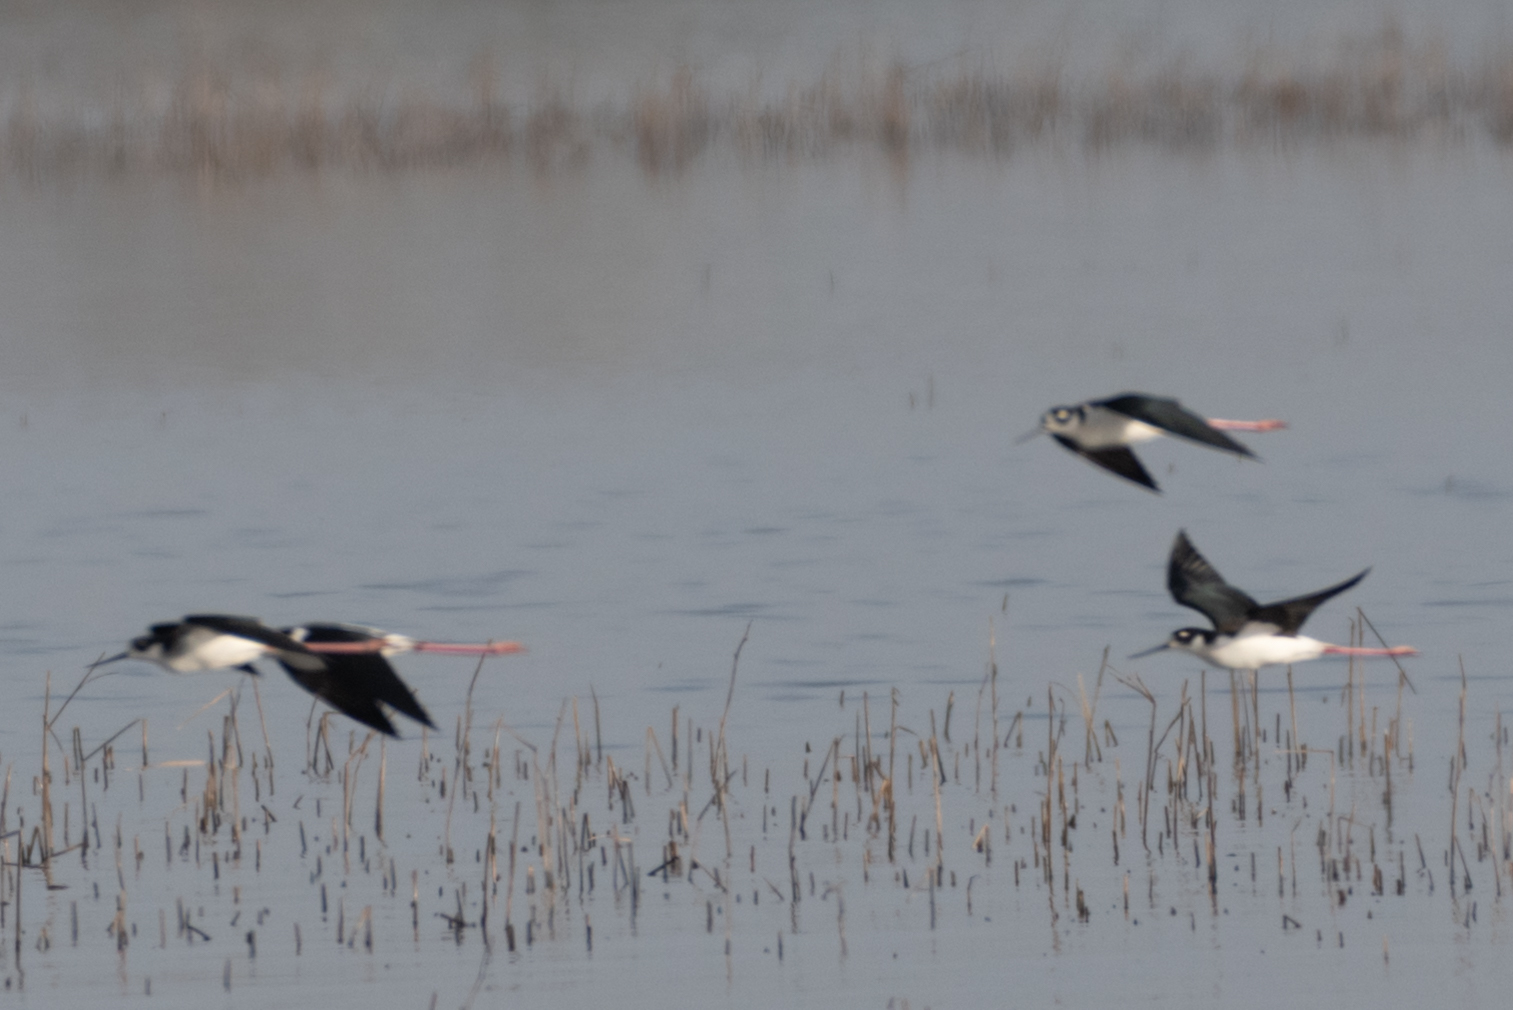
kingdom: Animalia
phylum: Chordata
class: Aves
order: Charadriiformes
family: Recurvirostridae
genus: Himantopus
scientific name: Himantopus mexicanus
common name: Black-necked stilt
